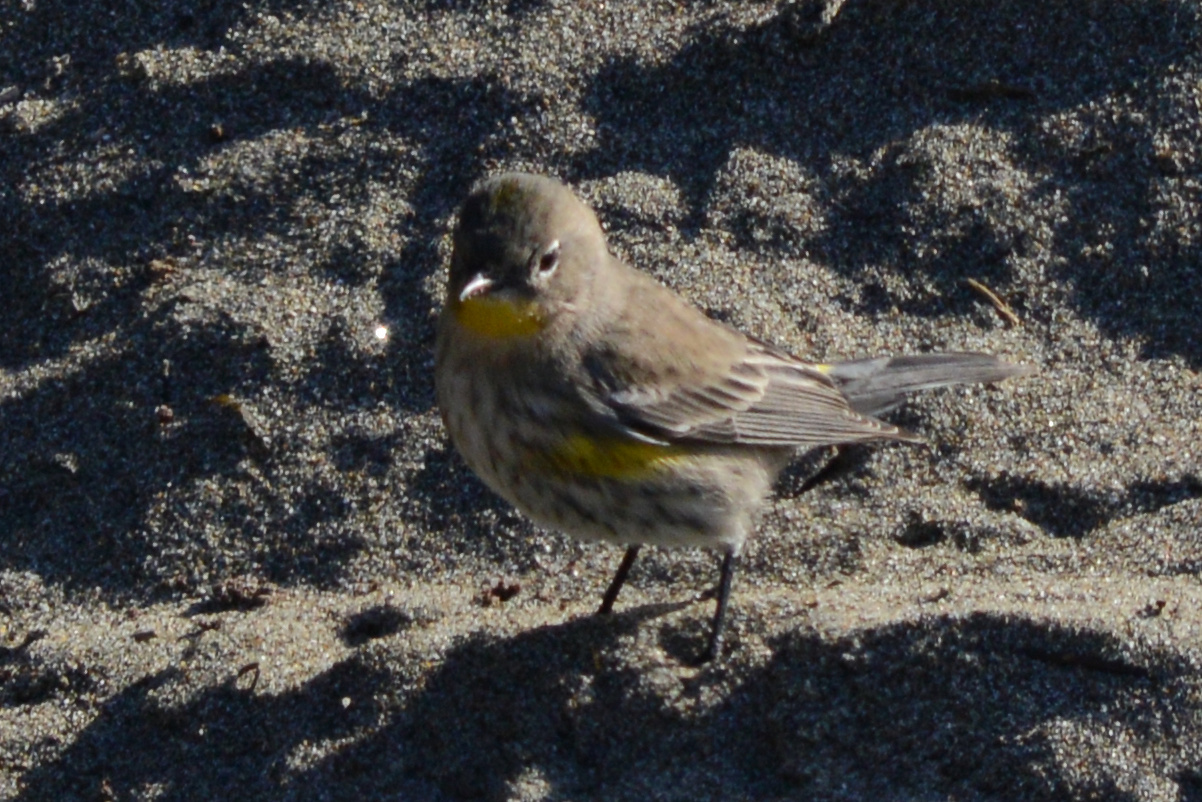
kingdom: Animalia
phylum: Chordata
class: Aves
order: Passeriformes
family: Parulidae
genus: Setophaga
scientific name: Setophaga coronata
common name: Myrtle warbler
